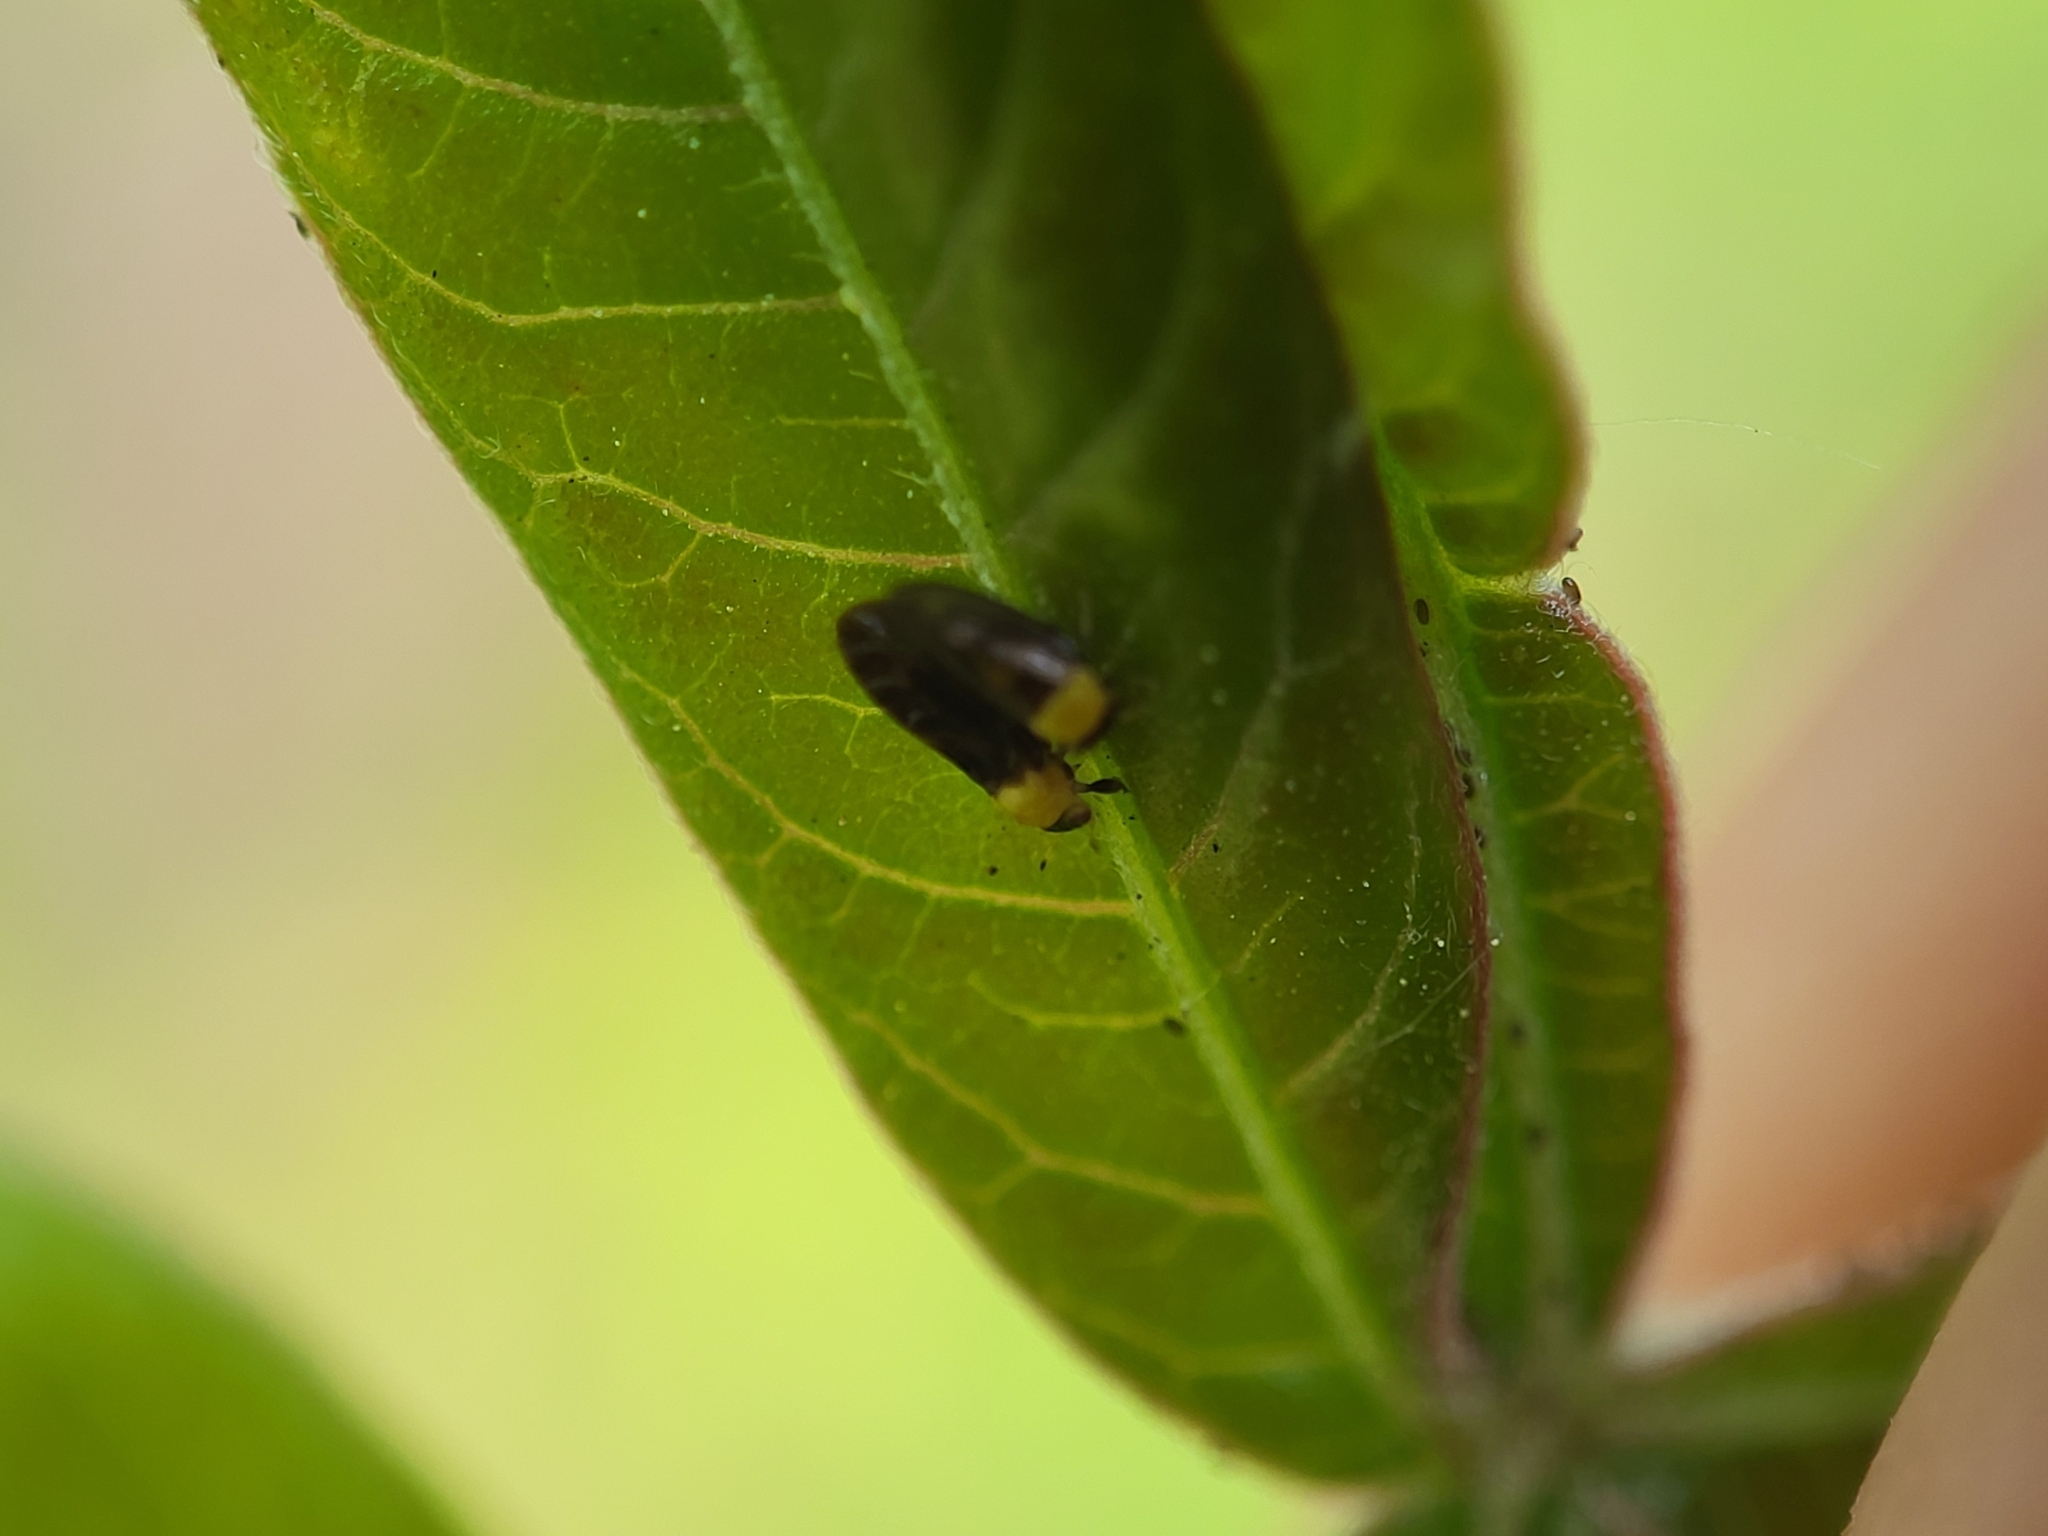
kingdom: Animalia
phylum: Arthropoda
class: Insecta
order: Hemiptera
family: Calophyidae
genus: Calophya
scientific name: Calophya nigripennis
